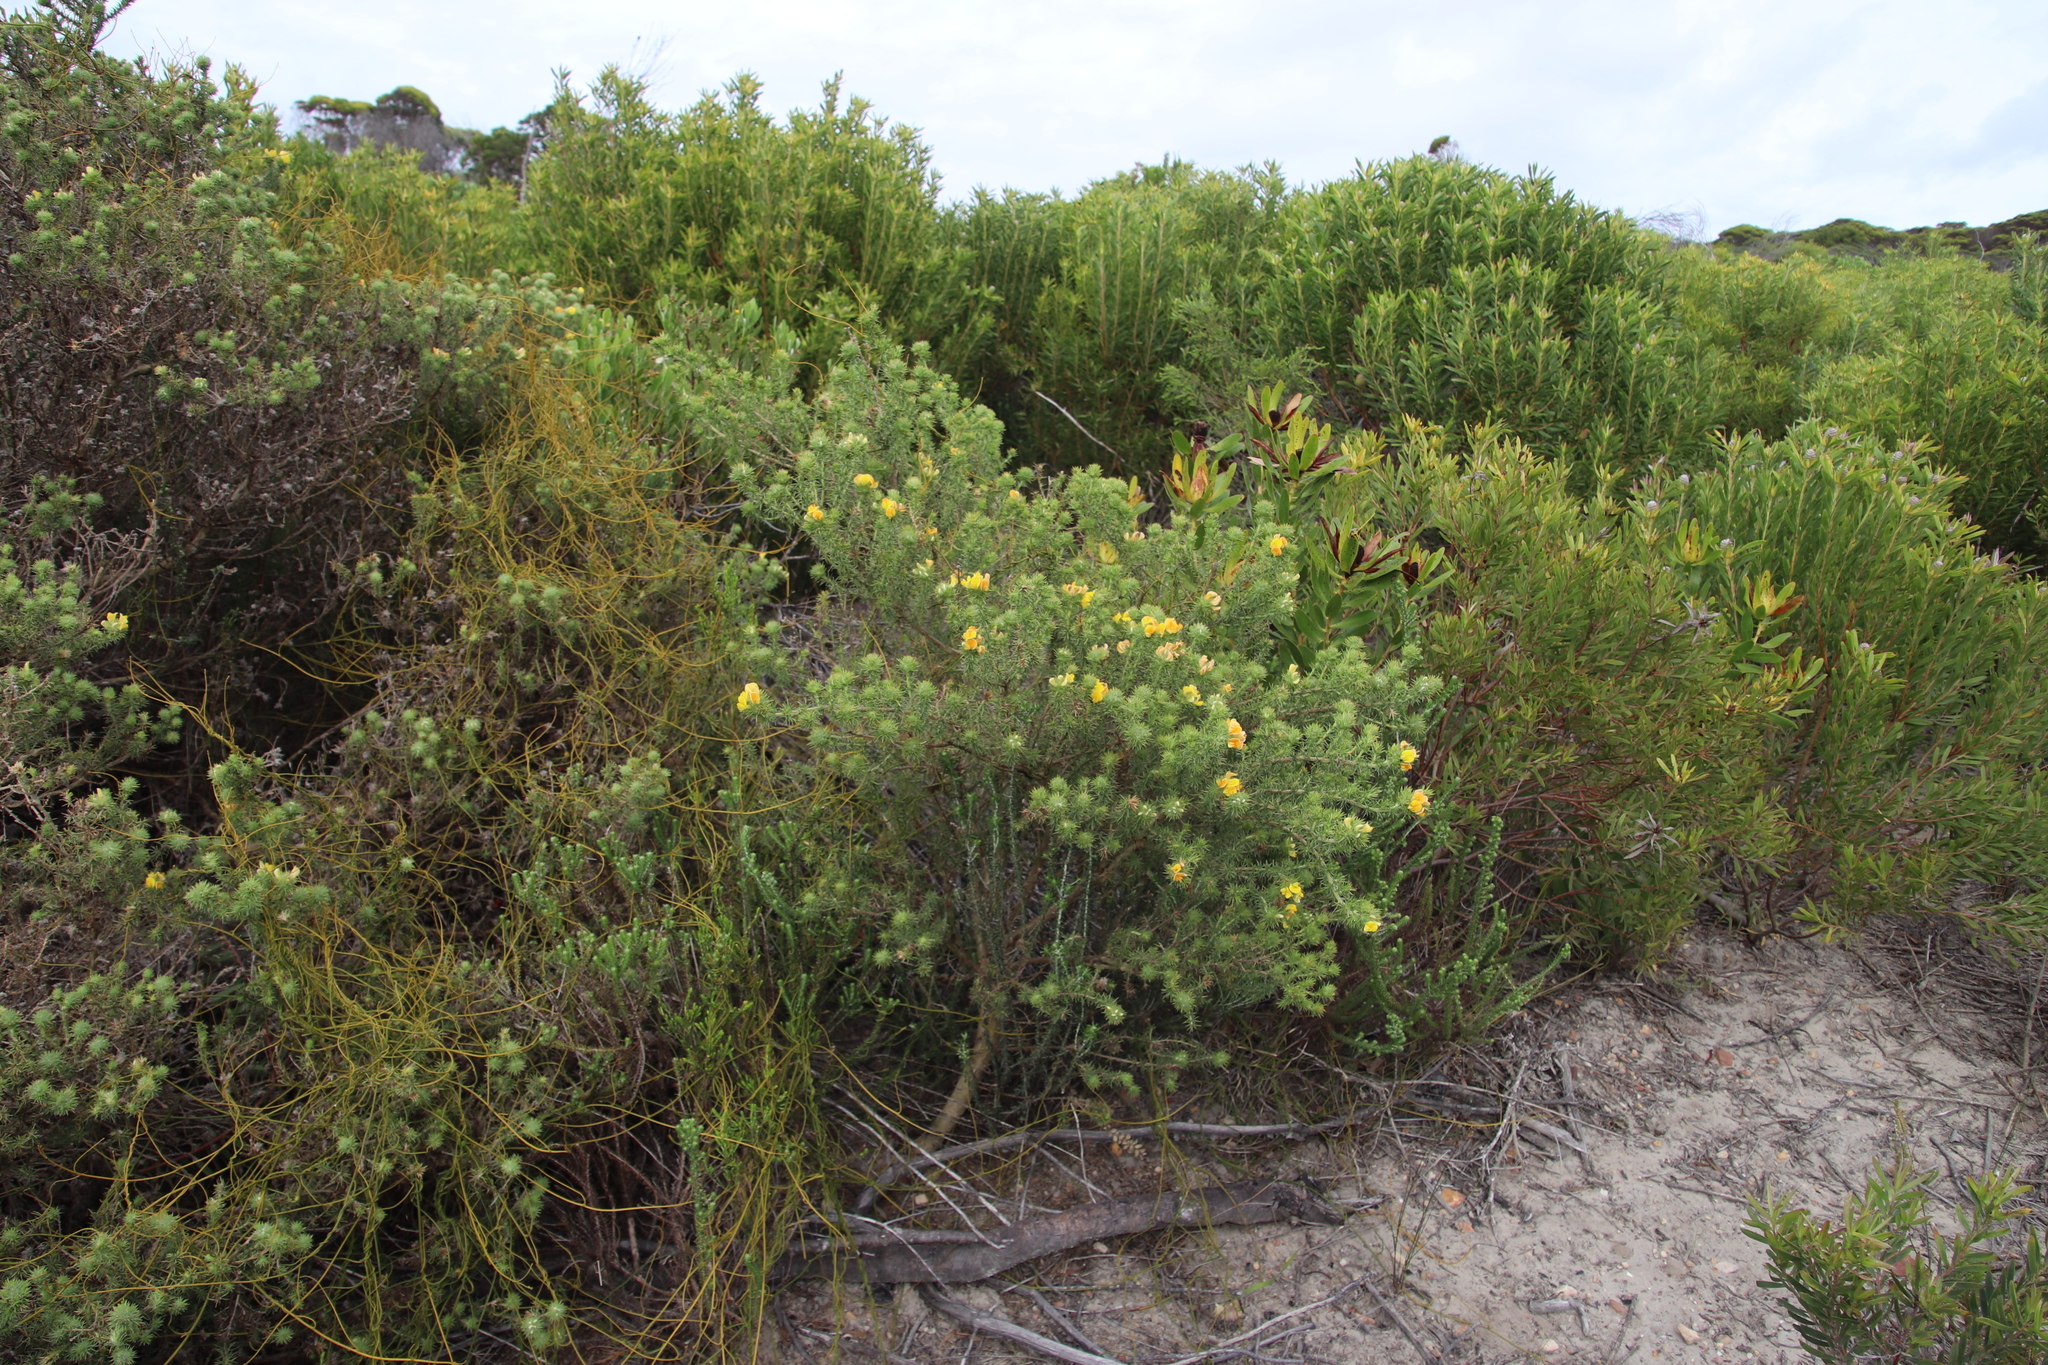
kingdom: Plantae
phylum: Tracheophyta
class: Magnoliopsida
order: Fabales
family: Fabaceae
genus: Aspalathus
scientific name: Aspalathus chenopoda
